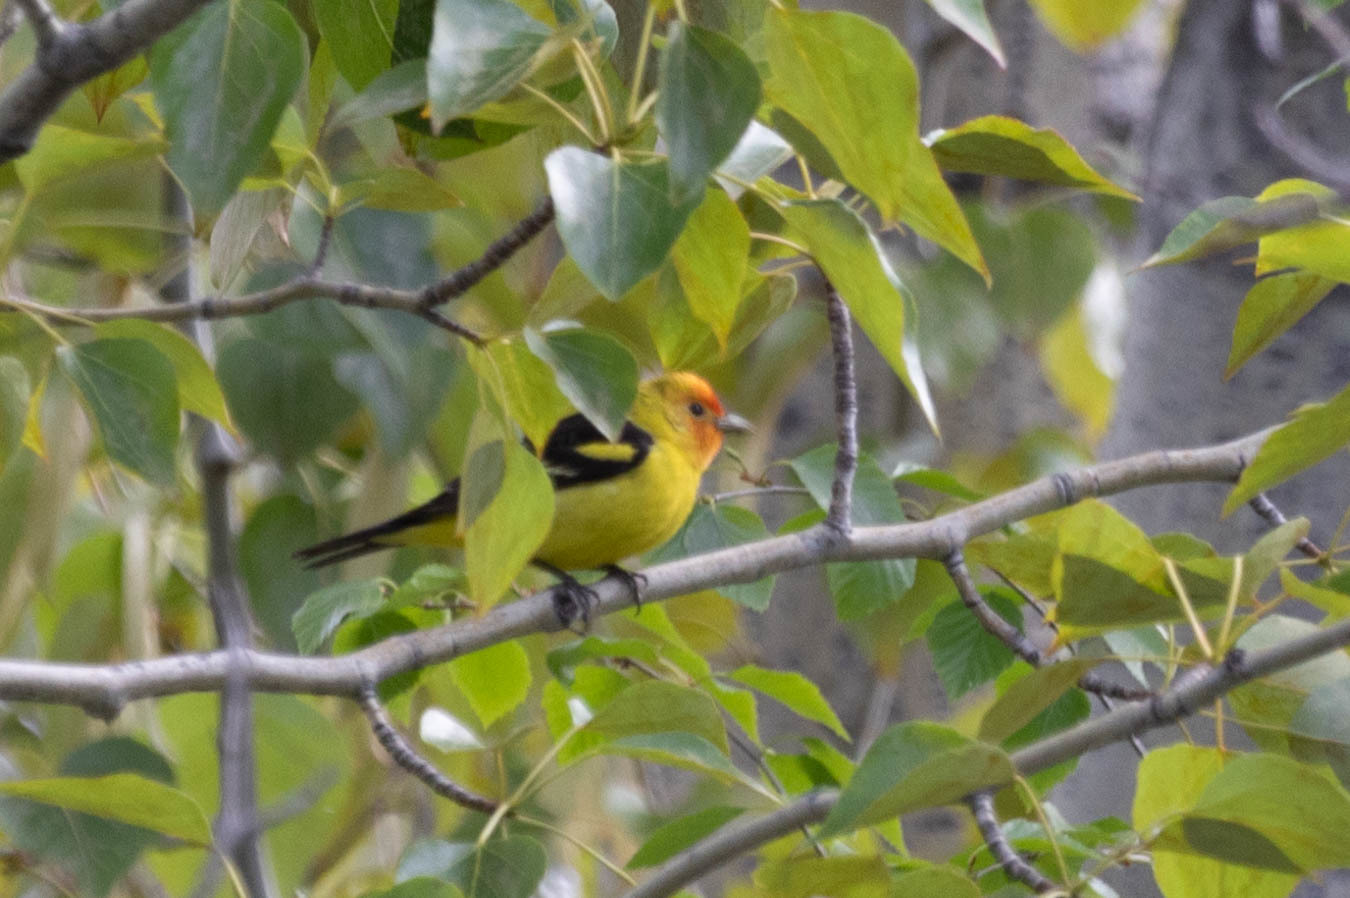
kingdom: Animalia
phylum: Chordata
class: Aves
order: Passeriformes
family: Cardinalidae
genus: Piranga
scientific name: Piranga ludoviciana
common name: Western tanager
